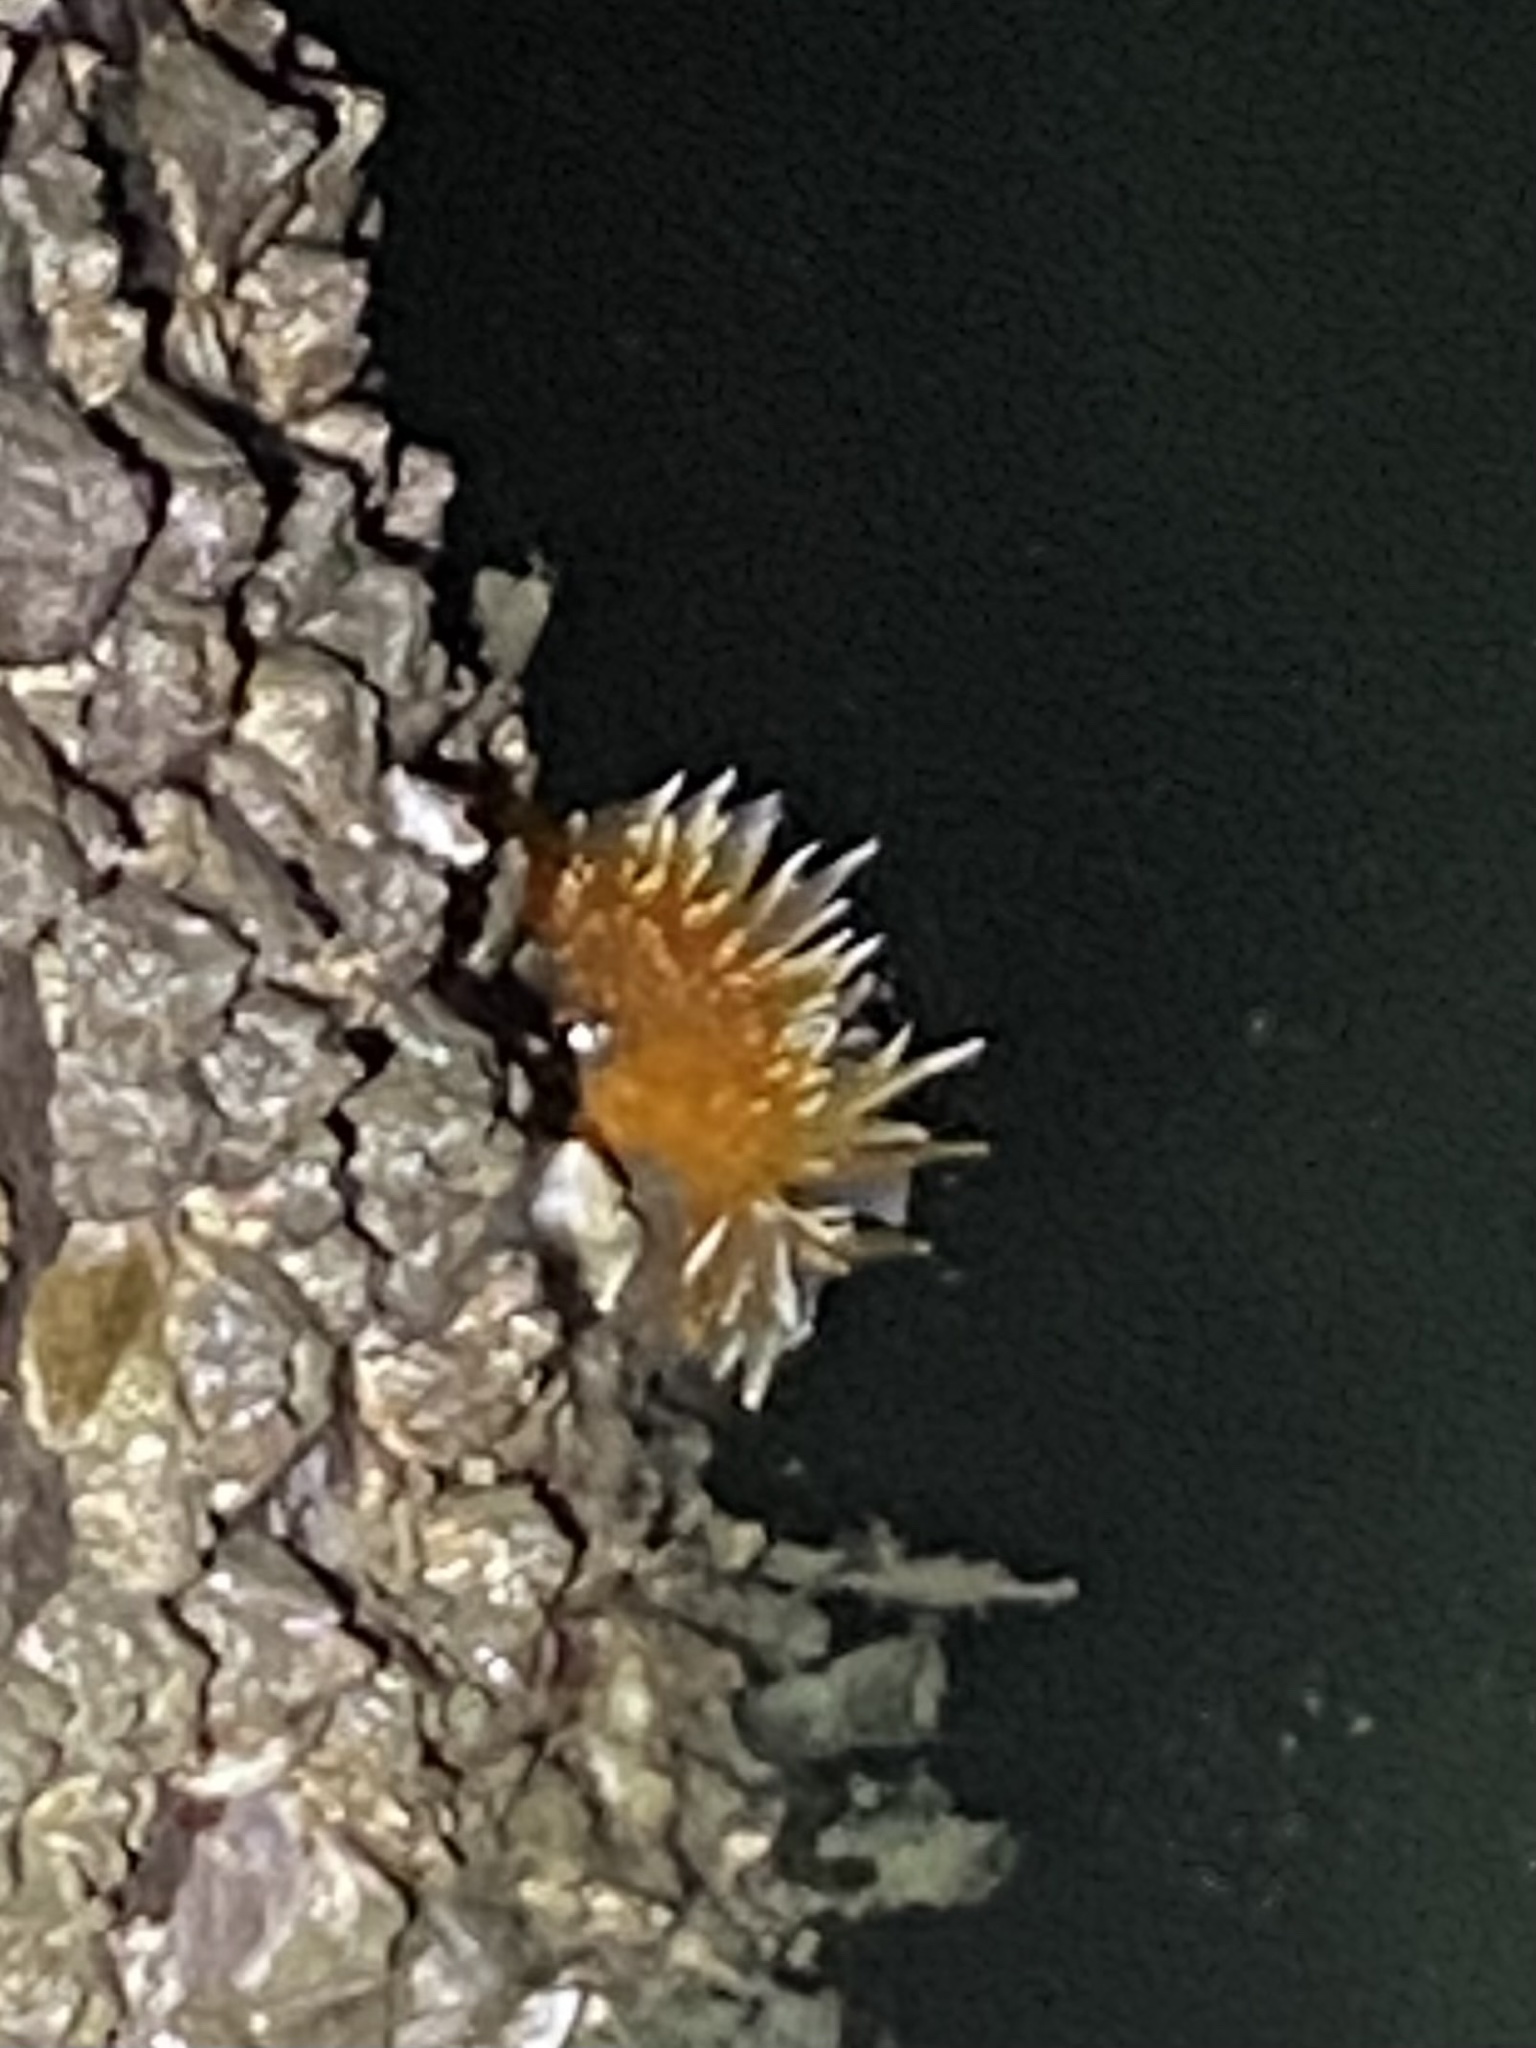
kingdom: Animalia
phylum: Mollusca
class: Gastropoda
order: Nudibranchia
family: Dironidae
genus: Dirona
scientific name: Dirona pellucida
